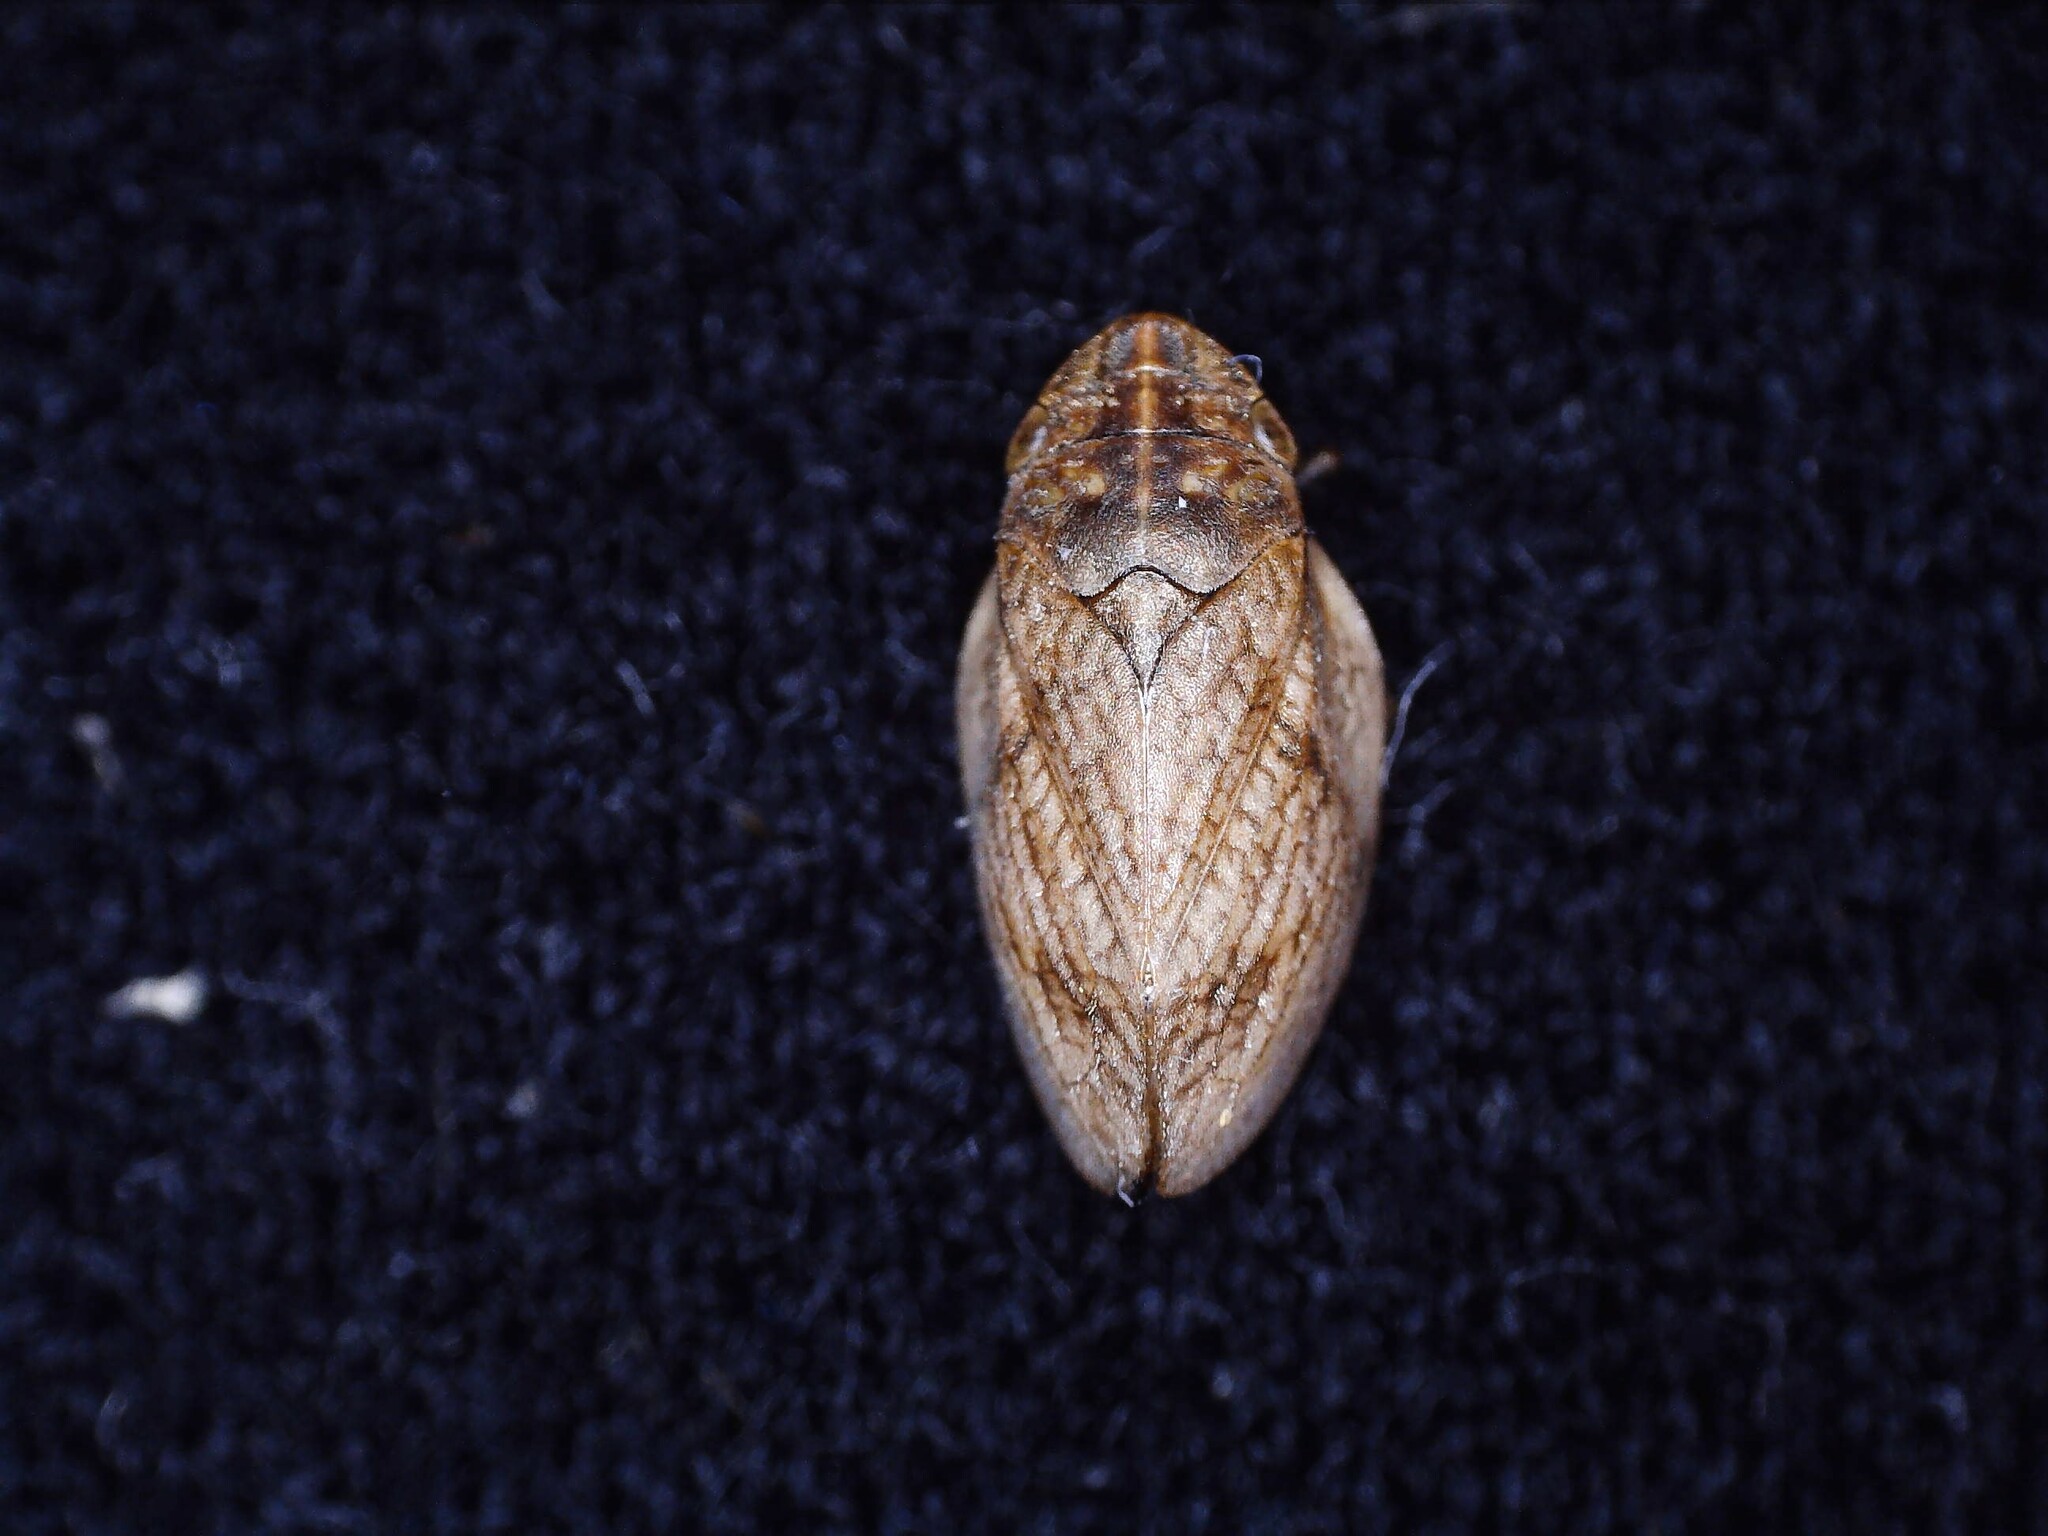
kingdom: Animalia
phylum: Arthropoda
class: Insecta
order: Hemiptera
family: Aphrophoridae
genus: Lepyronia
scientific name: Lepyronia coleoptrata
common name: Leafhopper
